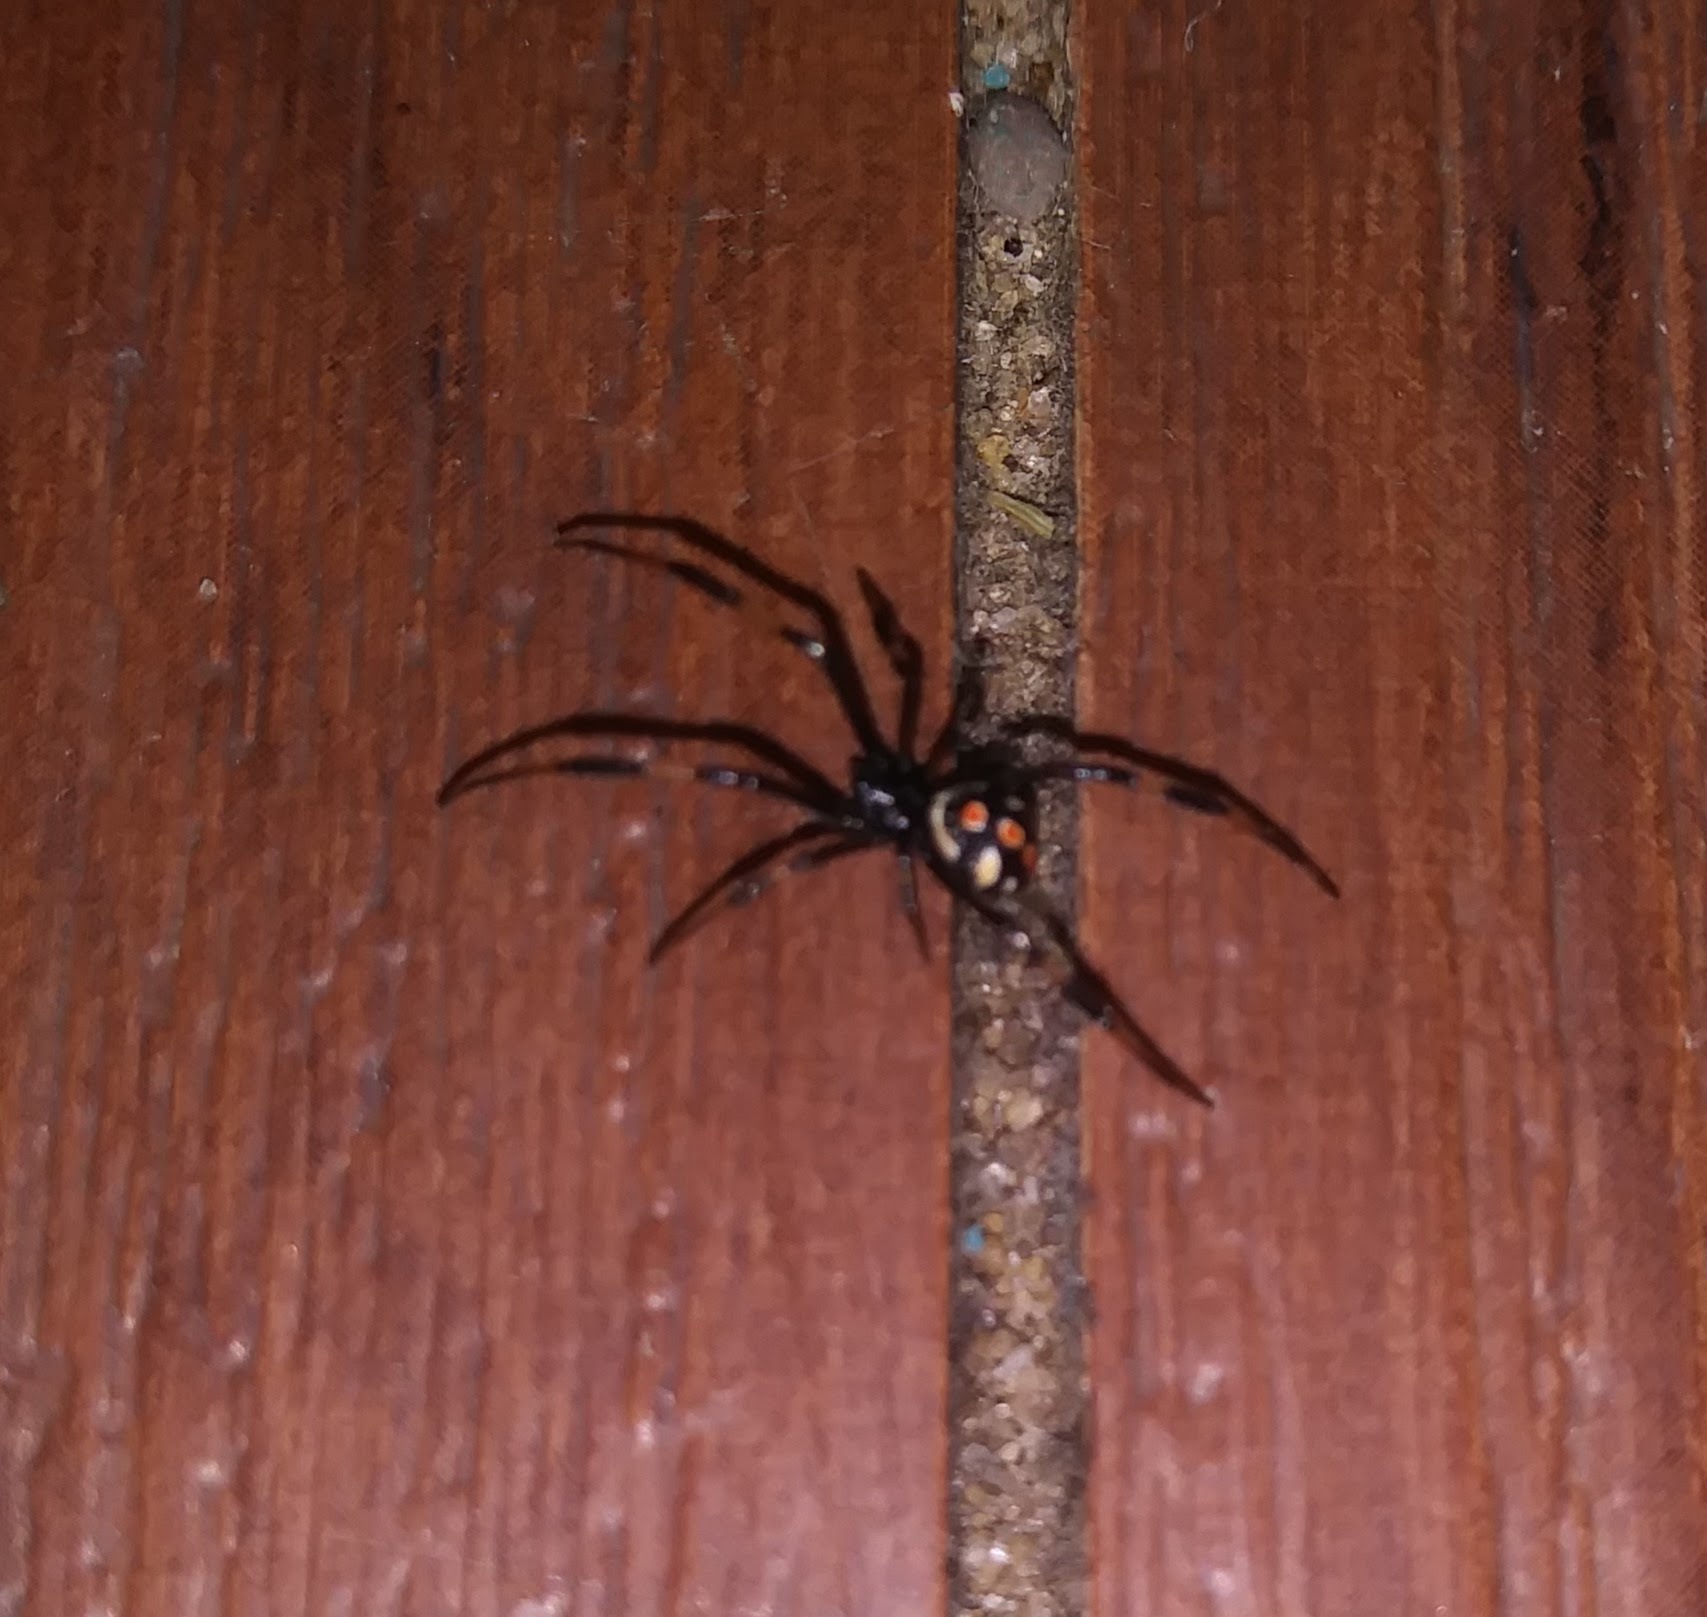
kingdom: Animalia
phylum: Arthropoda
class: Arachnida
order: Araneae
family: Theridiidae
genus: Latrodectus
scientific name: Latrodectus mactans
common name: Cobweb spiders
